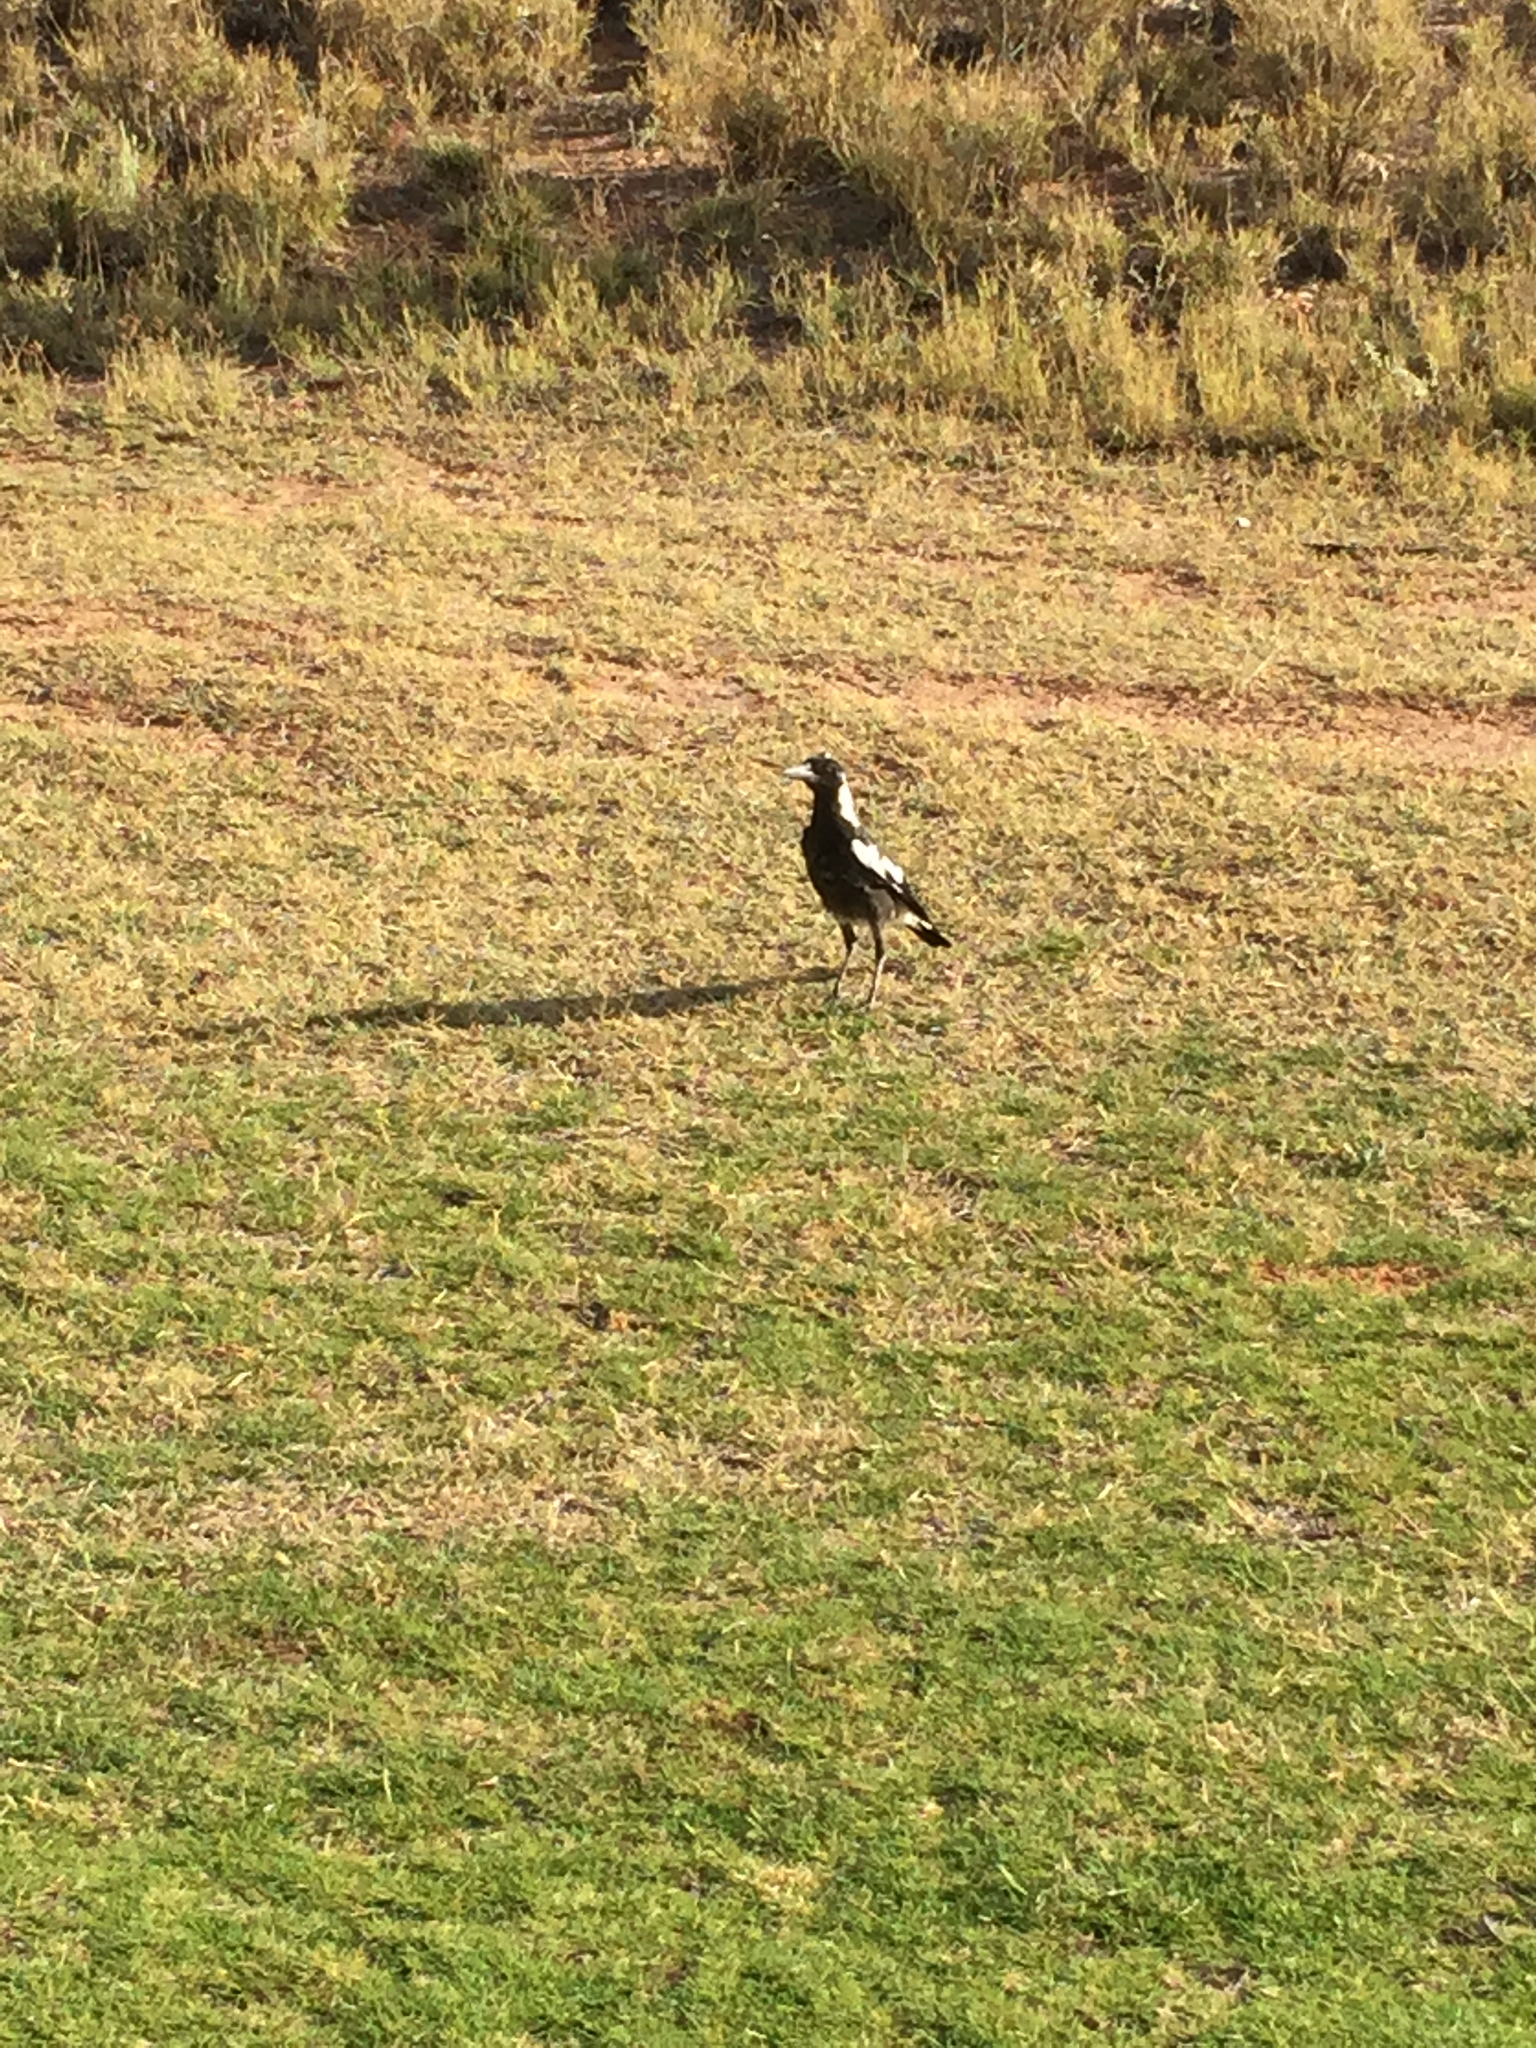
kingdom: Animalia
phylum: Chordata
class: Aves
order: Passeriformes
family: Cracticidae
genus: Gymnorhina
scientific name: Gymnorhina tibicen
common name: Australian magpie
